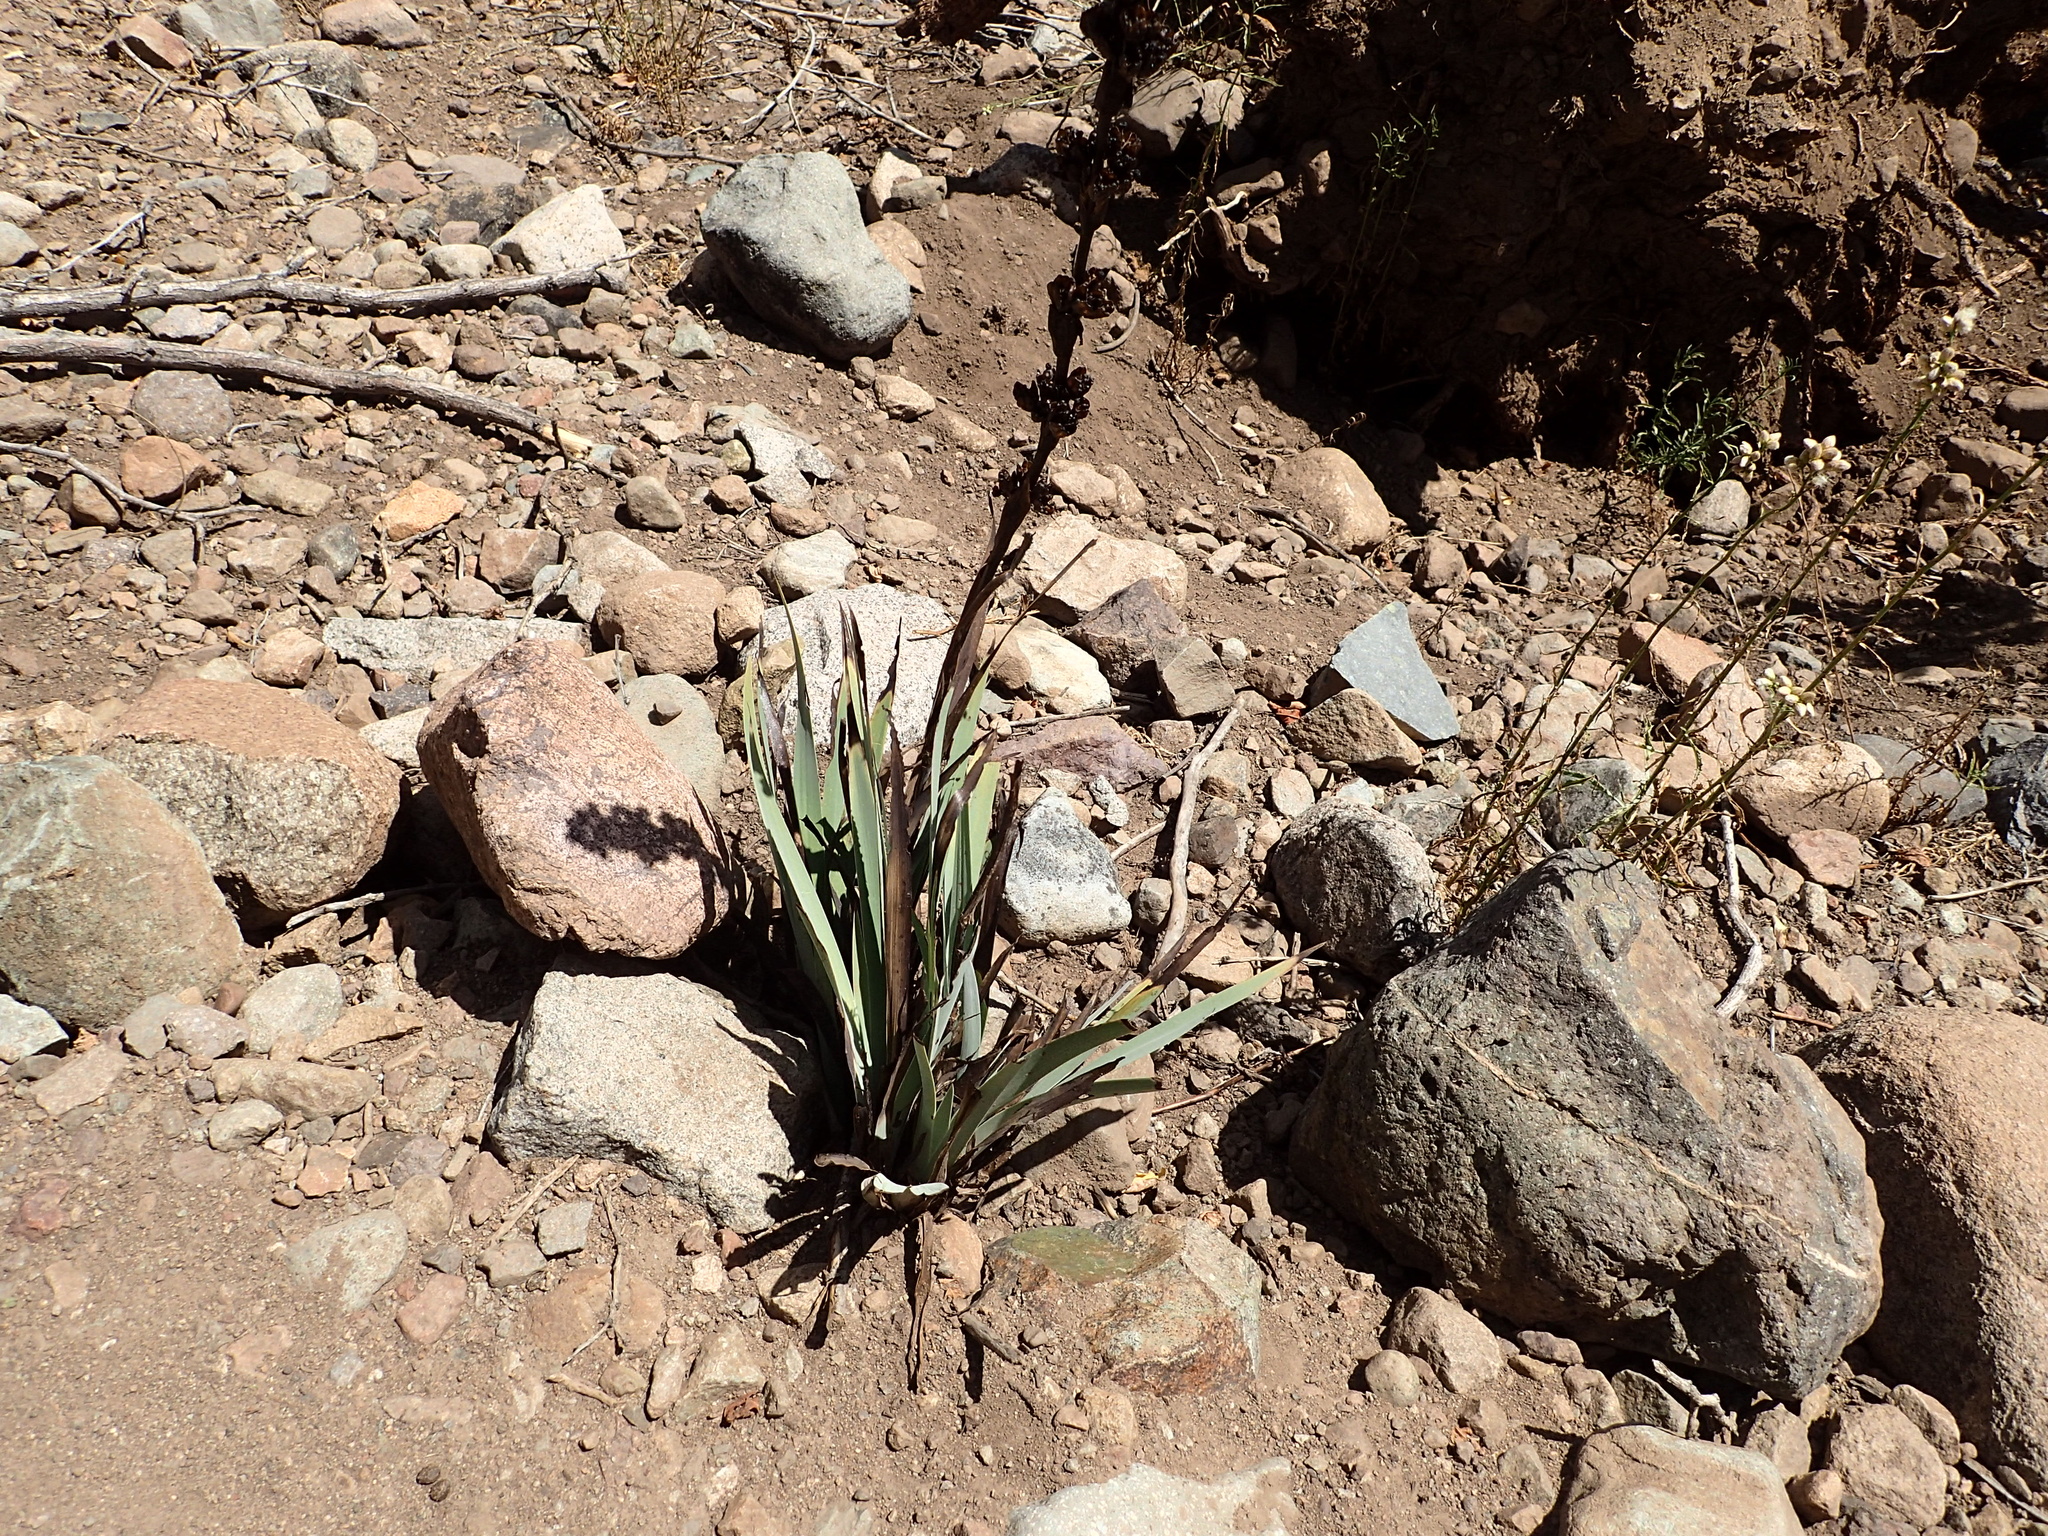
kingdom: Plantae
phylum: Tracheophyta
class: Liliopsida
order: Asparagales
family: Iridaceae
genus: Sisyrinchium
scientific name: Sisyrinchium striatum
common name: Pale yellow-eyed-grass
